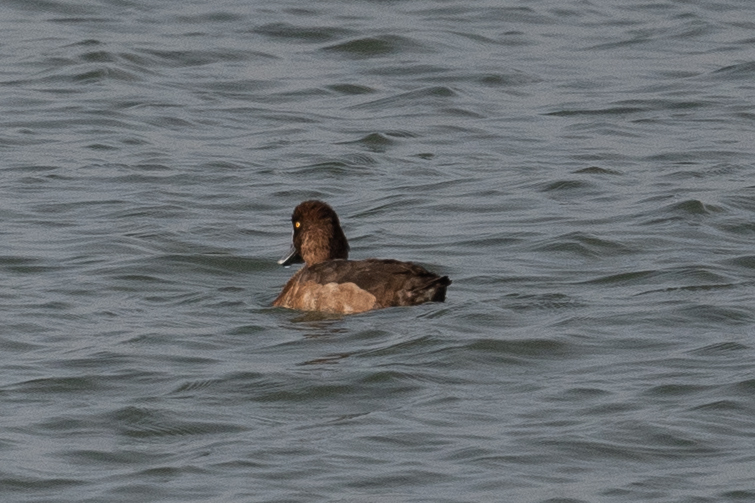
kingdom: Animalia
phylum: Chordata
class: Aves
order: Anseriformes
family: Anatidae
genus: Aythya
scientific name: Aythya
